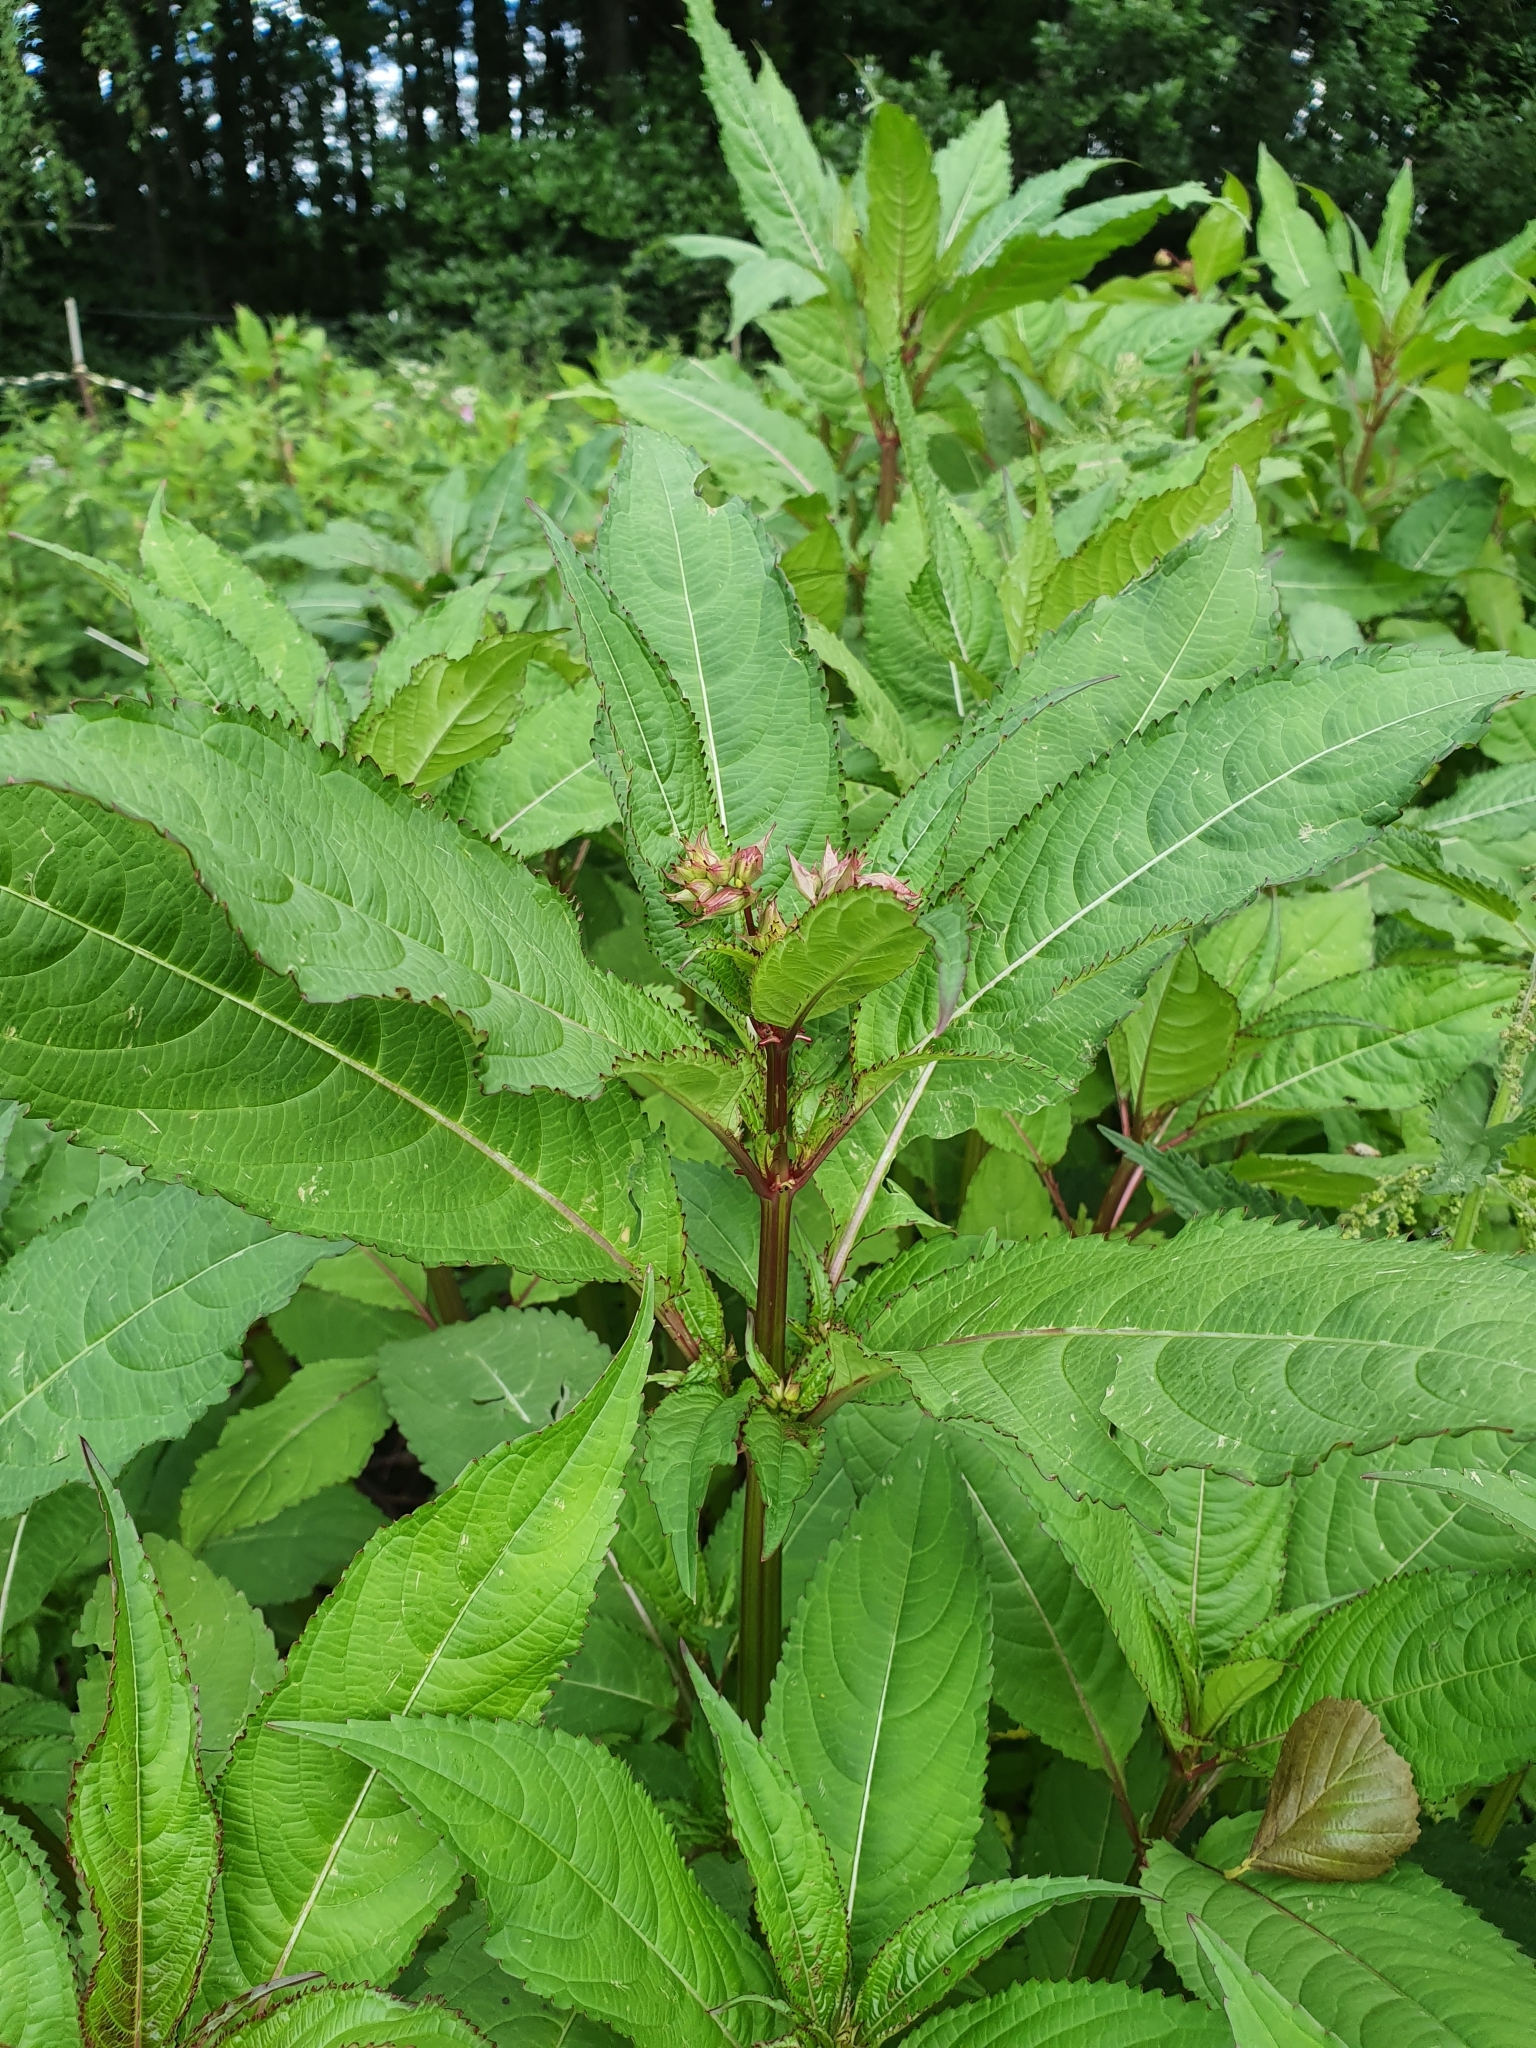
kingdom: Plantae
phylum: Tracheophyta
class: Magnoliopsida
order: Ericales
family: Balsaminaceae
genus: Impatiens
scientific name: Impatiens glandulifera
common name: Himalayan balsam
